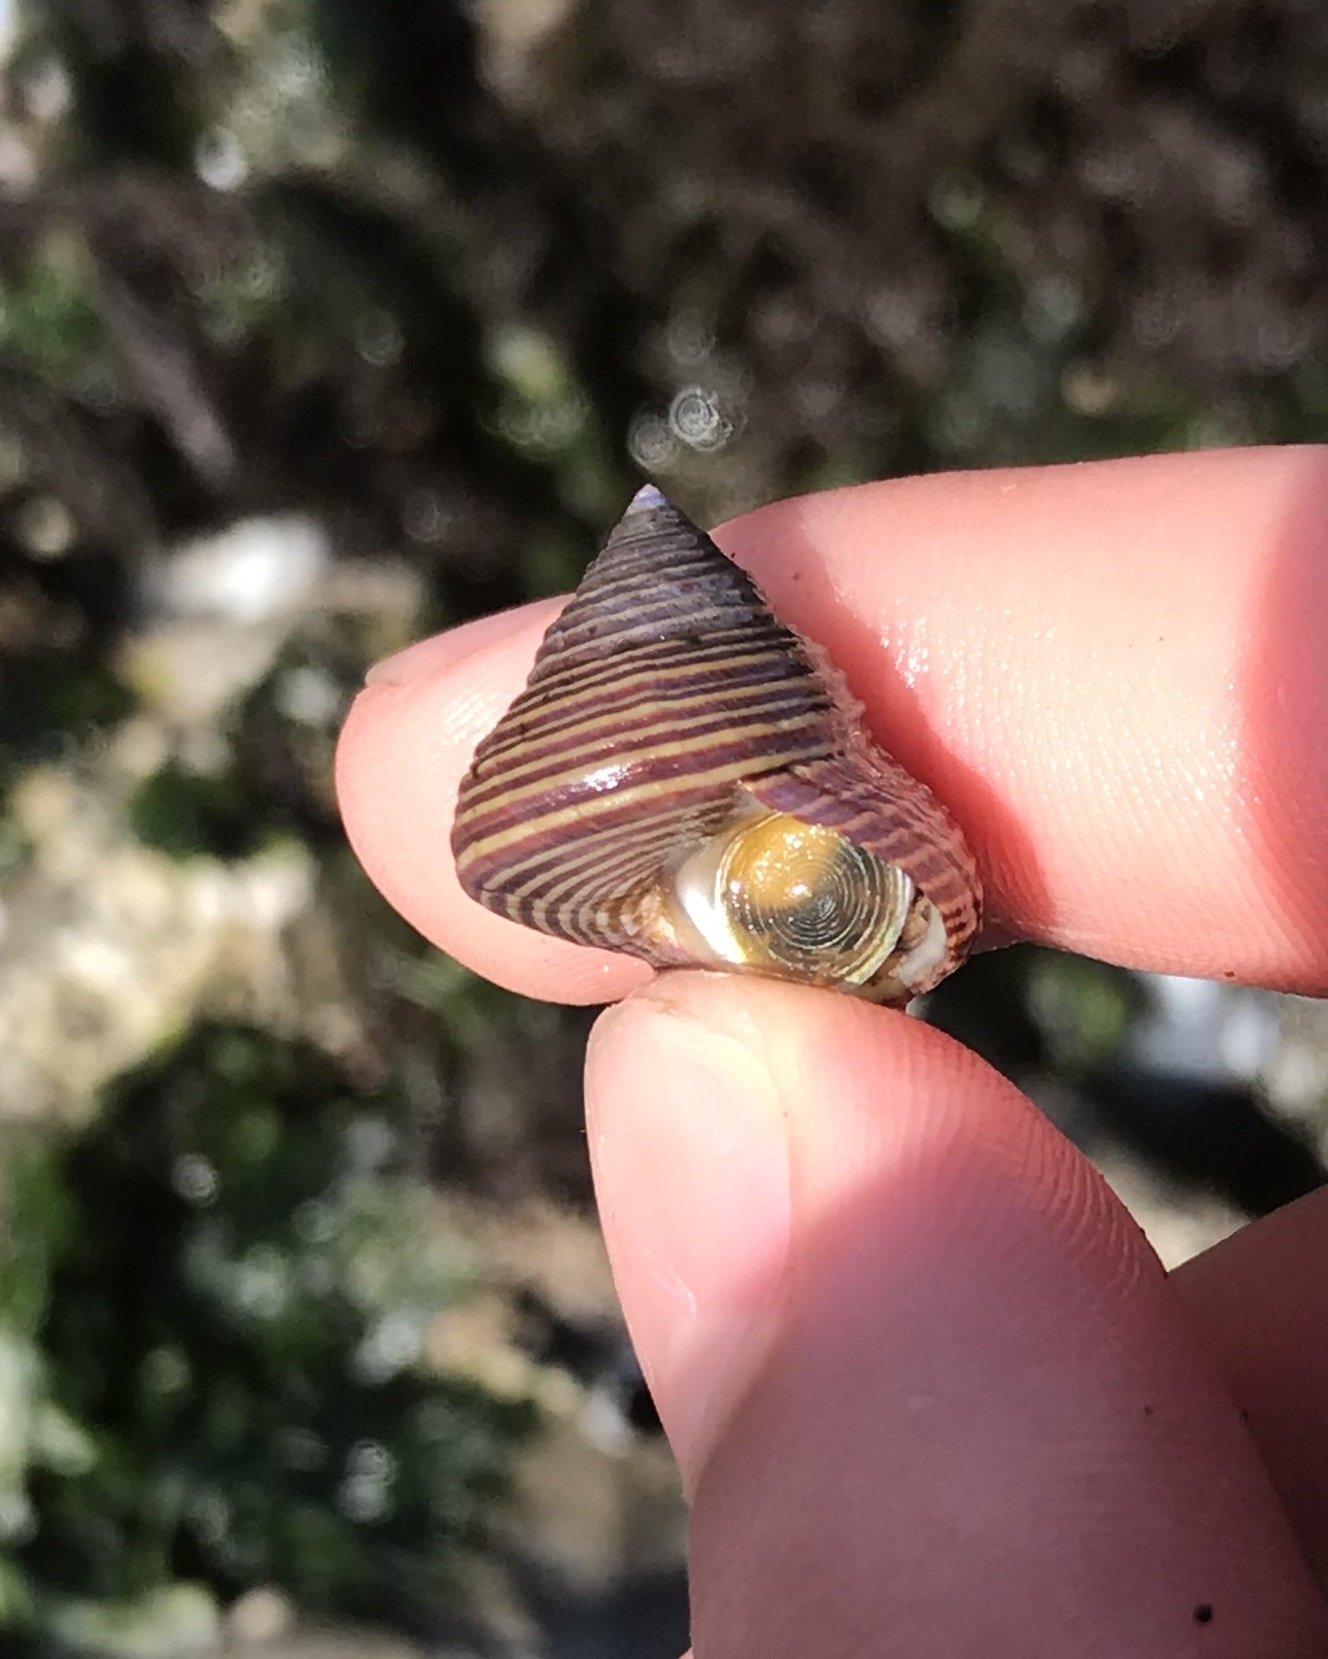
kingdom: Animalia
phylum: Mollusca
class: Gastropoda
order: Trochida
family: Calliostomatidae
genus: Calliostoma
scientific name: Calliostoma ligatum
